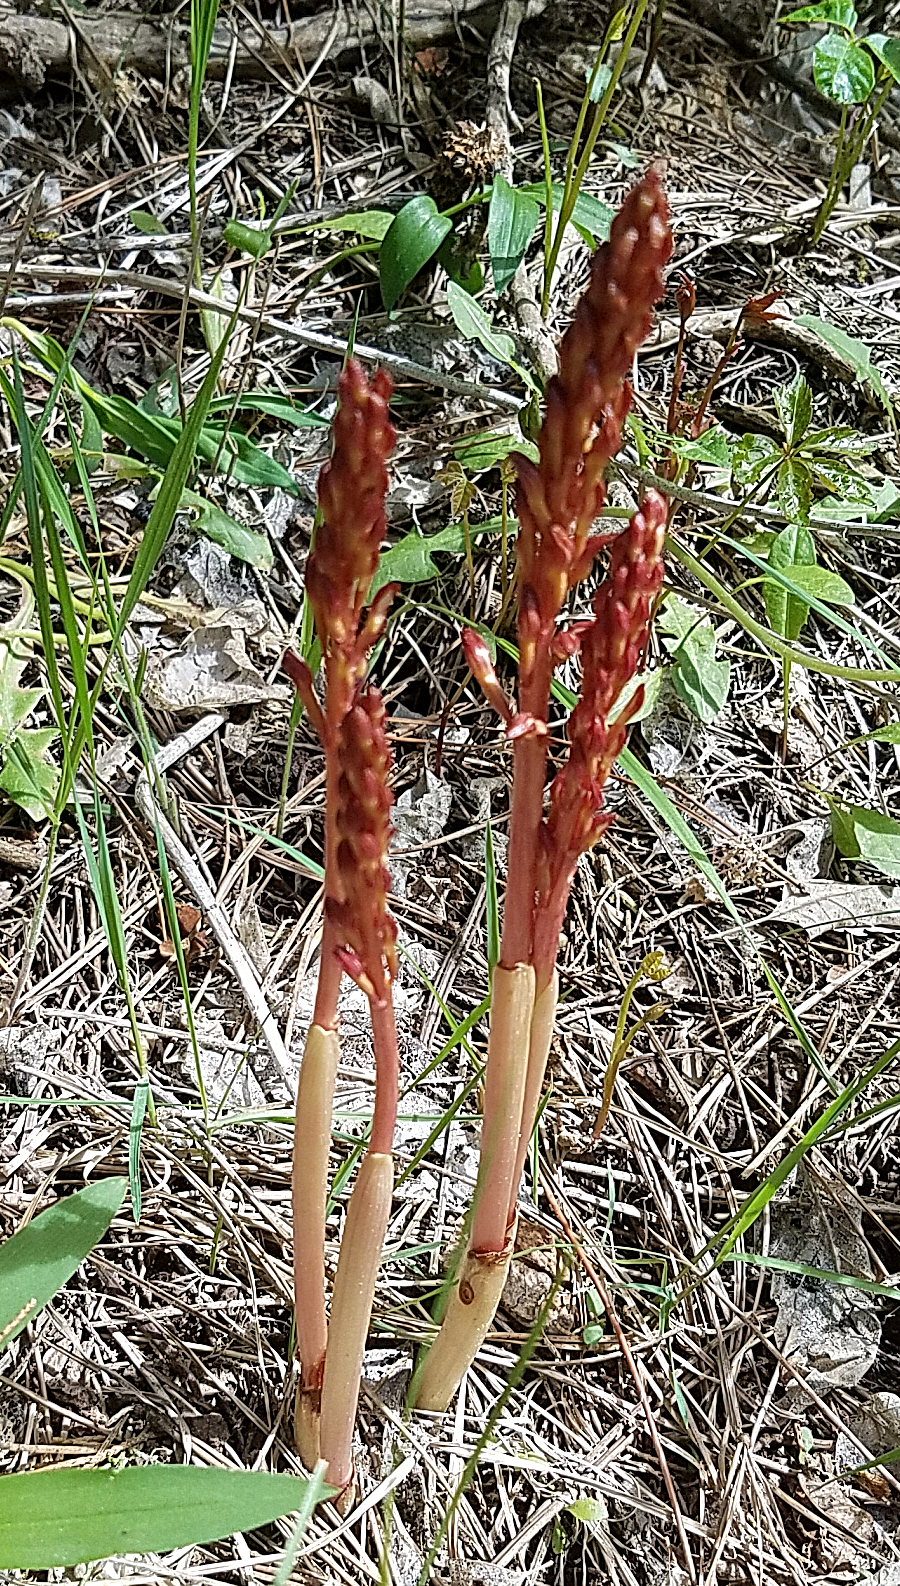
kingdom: Plantae
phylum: Tracheophyta
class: Liliopsida
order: Asparagales
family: Orchidaceae
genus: Corallorhiza
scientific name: Corallorhiza maculata
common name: Spotted coralroot
